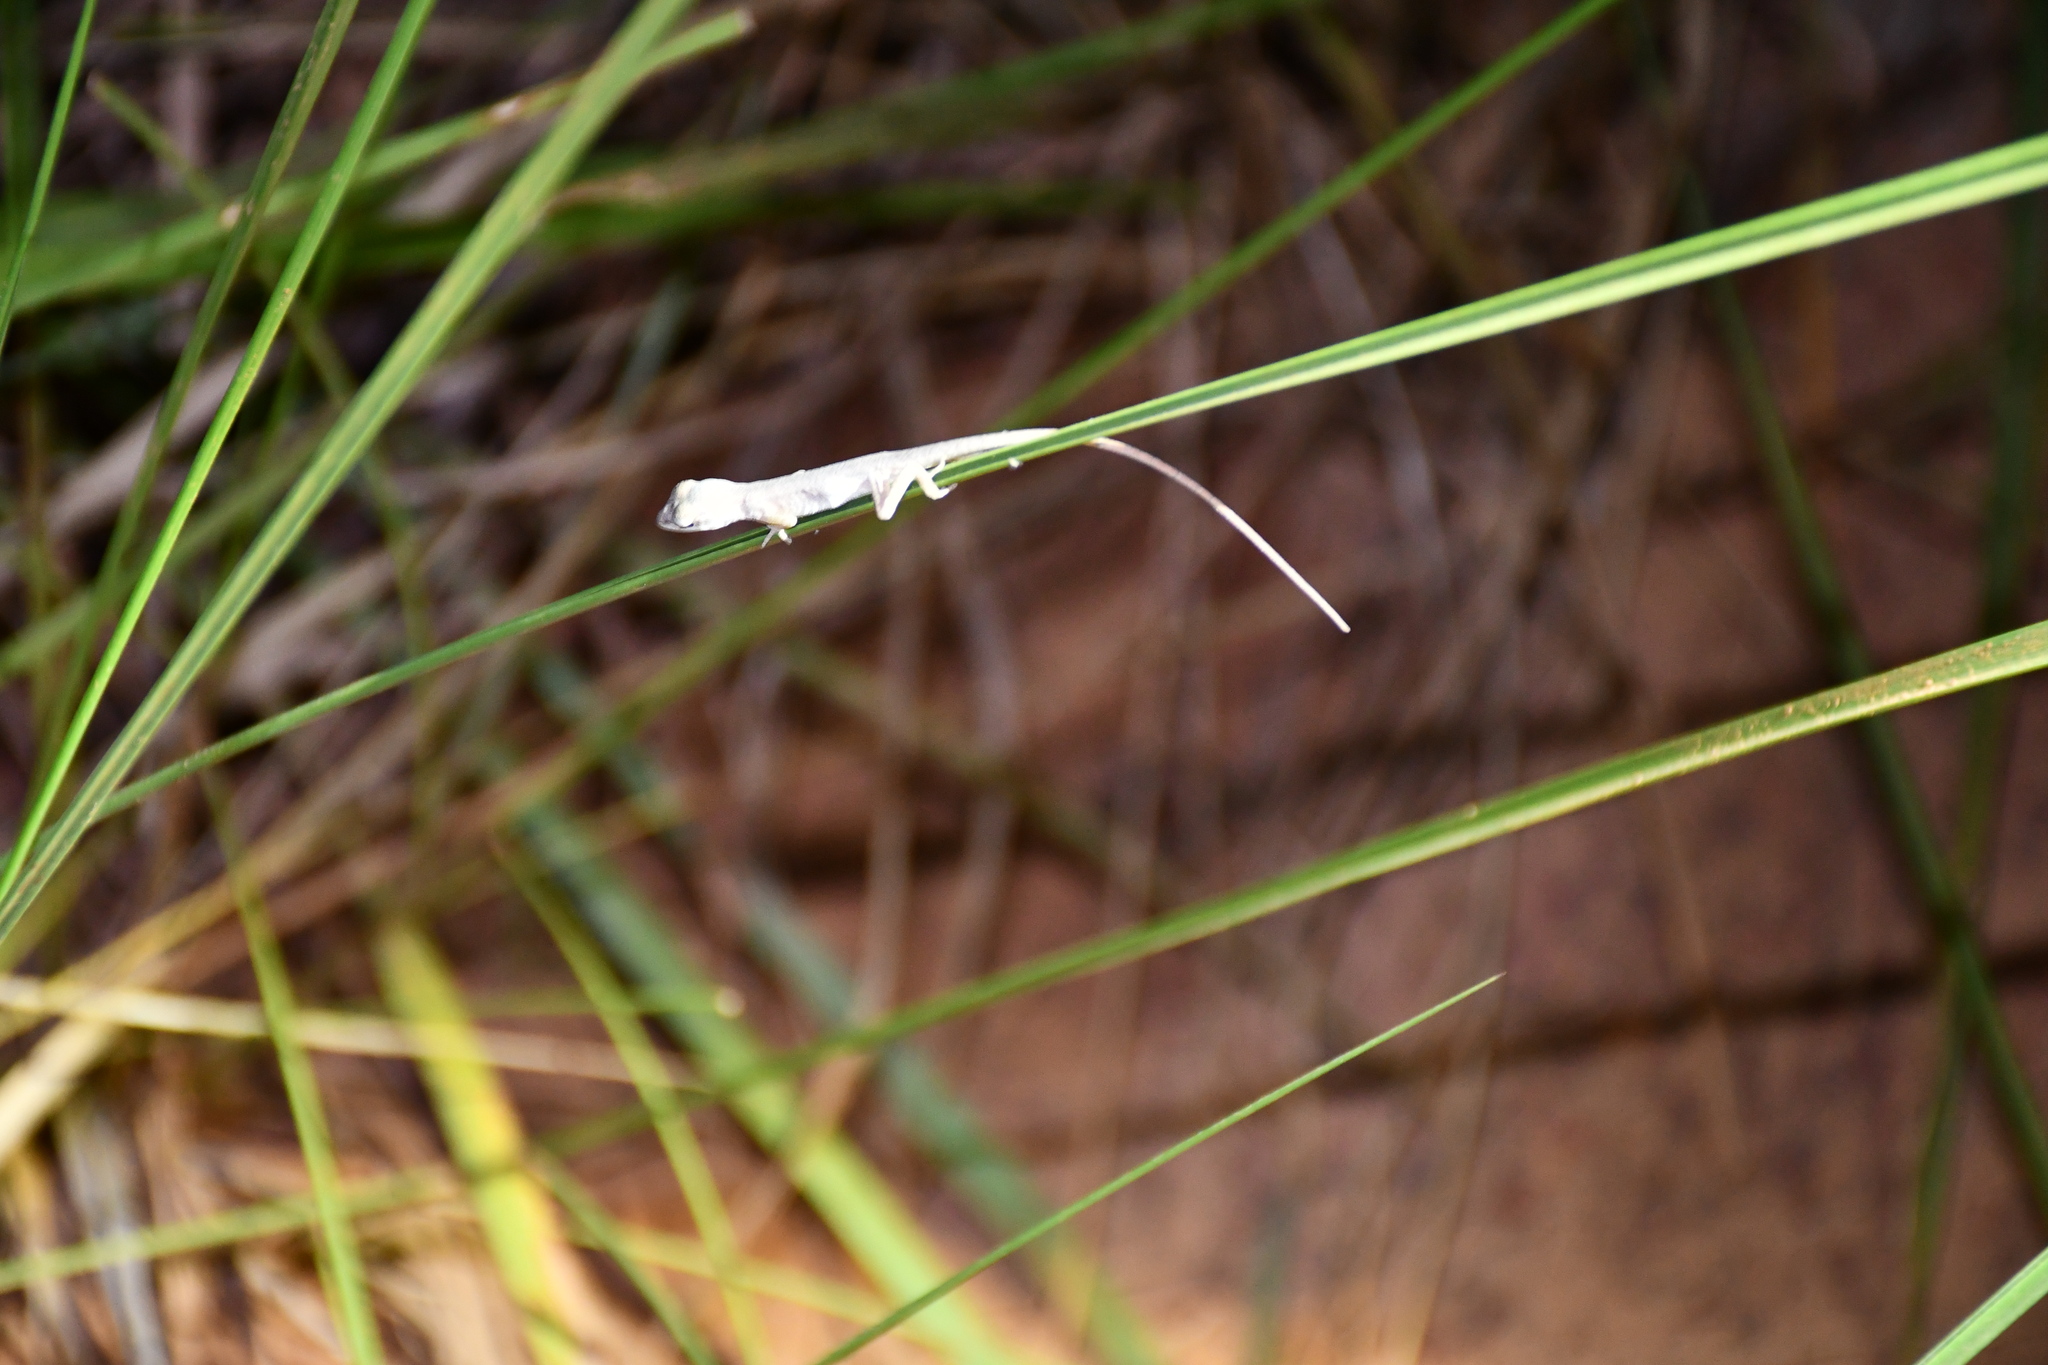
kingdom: Animalia
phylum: Chordata
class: Squamata
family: Dactyloidae
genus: Anolis
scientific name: Anolis meridionalis
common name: Meridian anole
